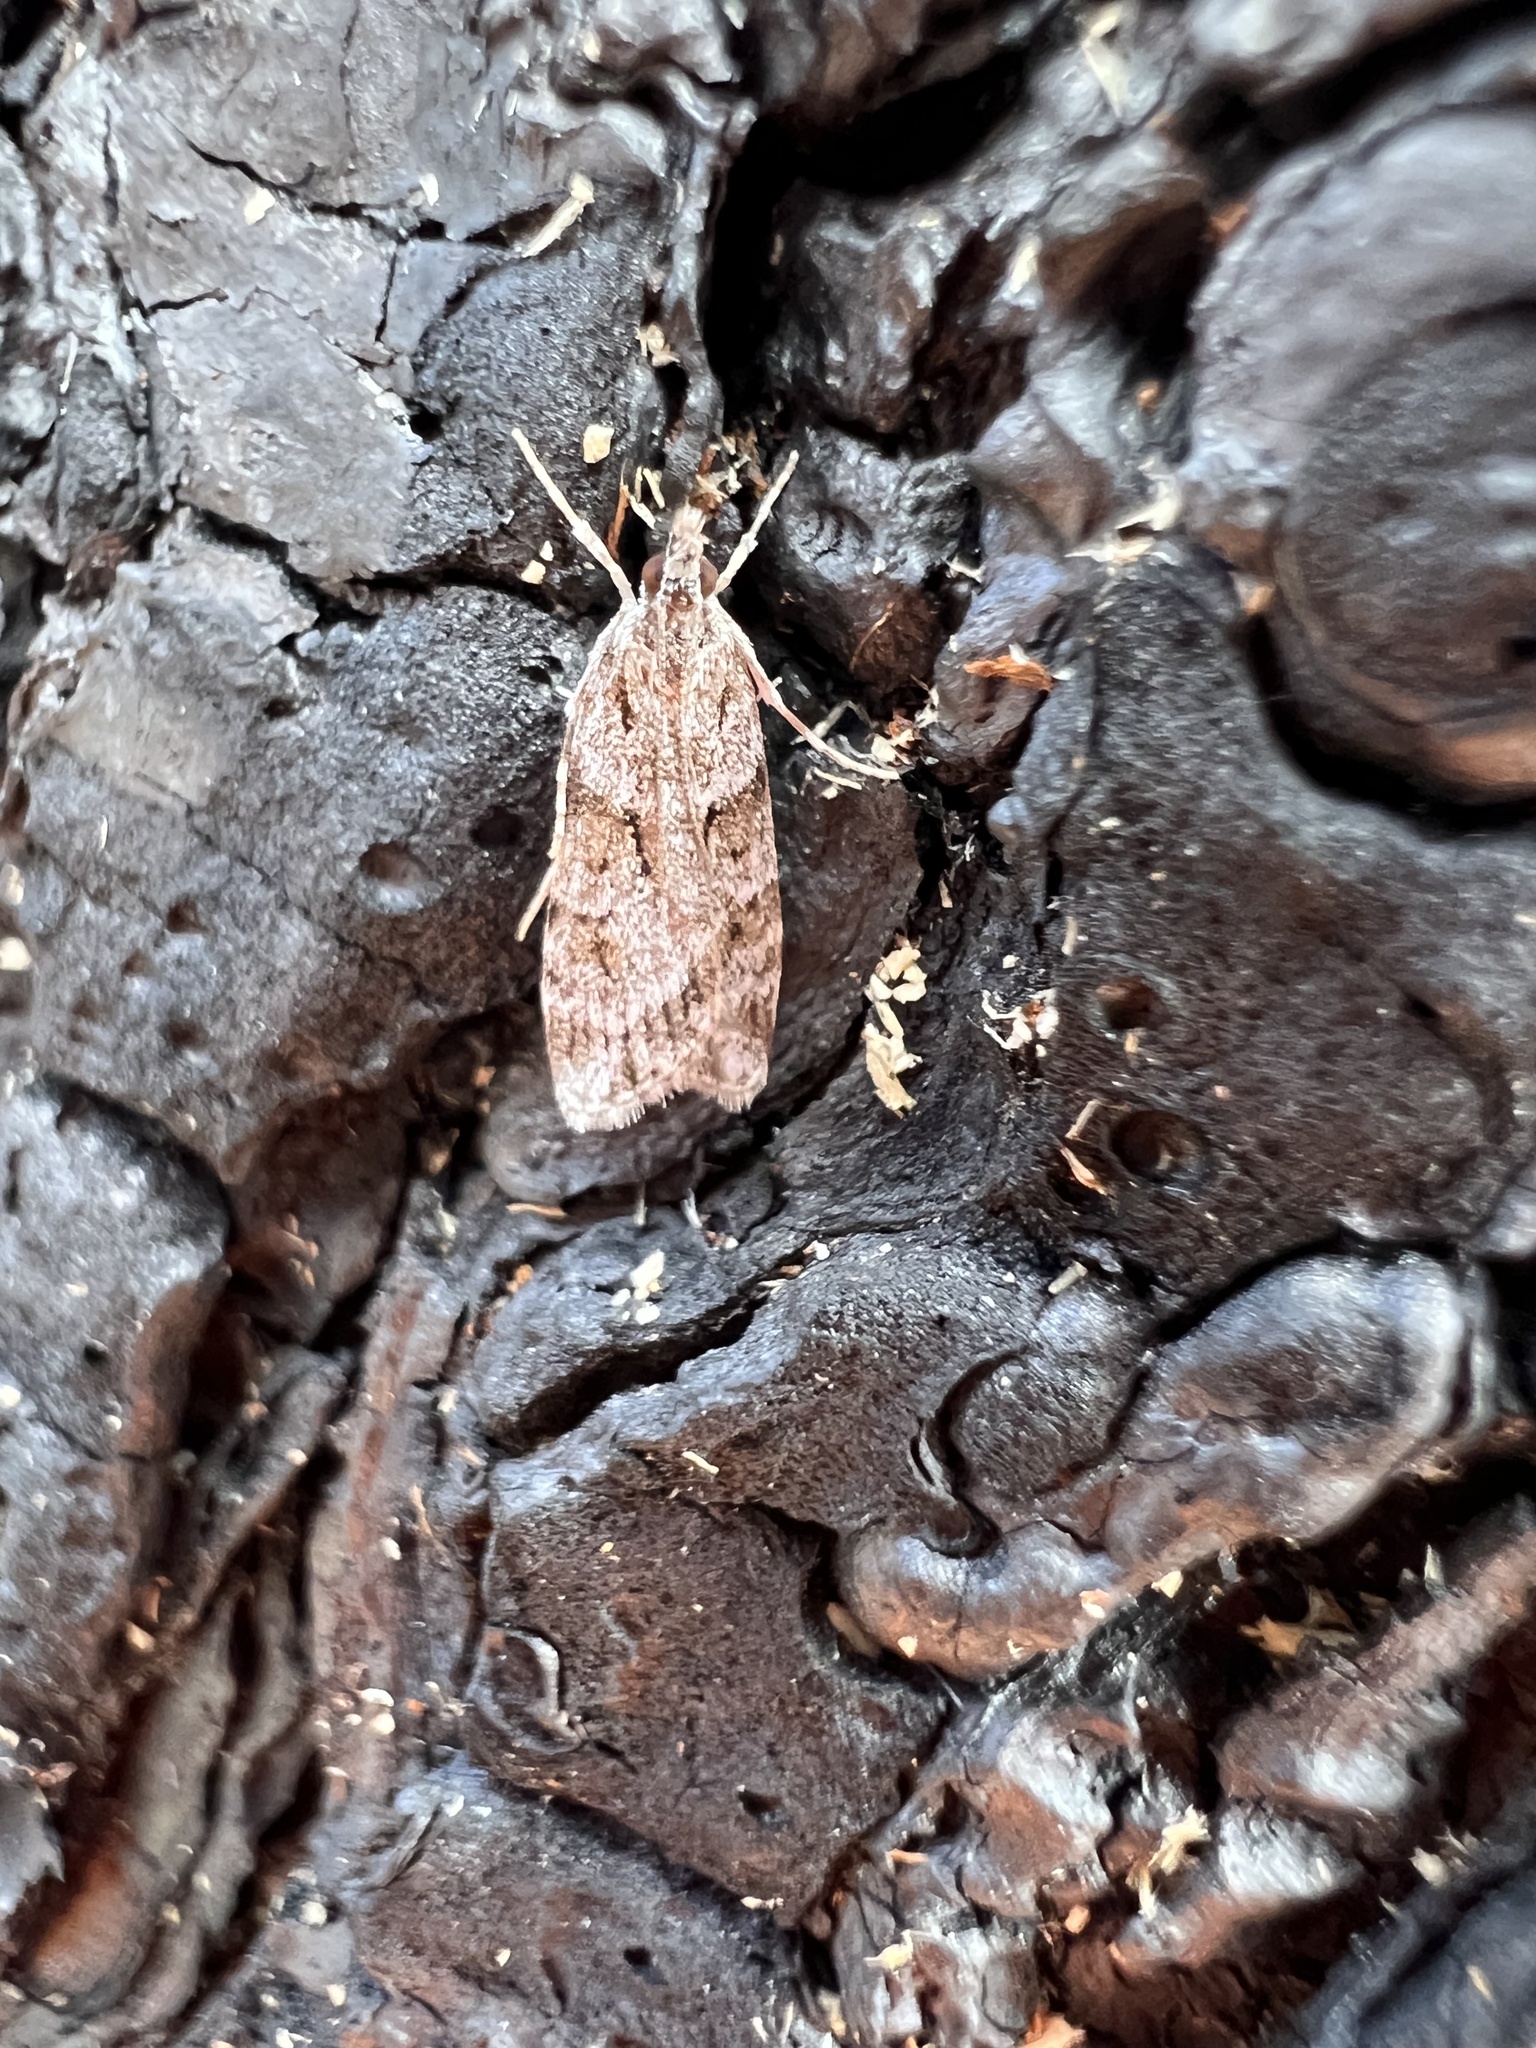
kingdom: Animalia
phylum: Arthropoda
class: Insecta
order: Lepidoptera
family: Crambidae
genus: Scoparia
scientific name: Scoparia biplagialis
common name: Double-striped scoparia moth
